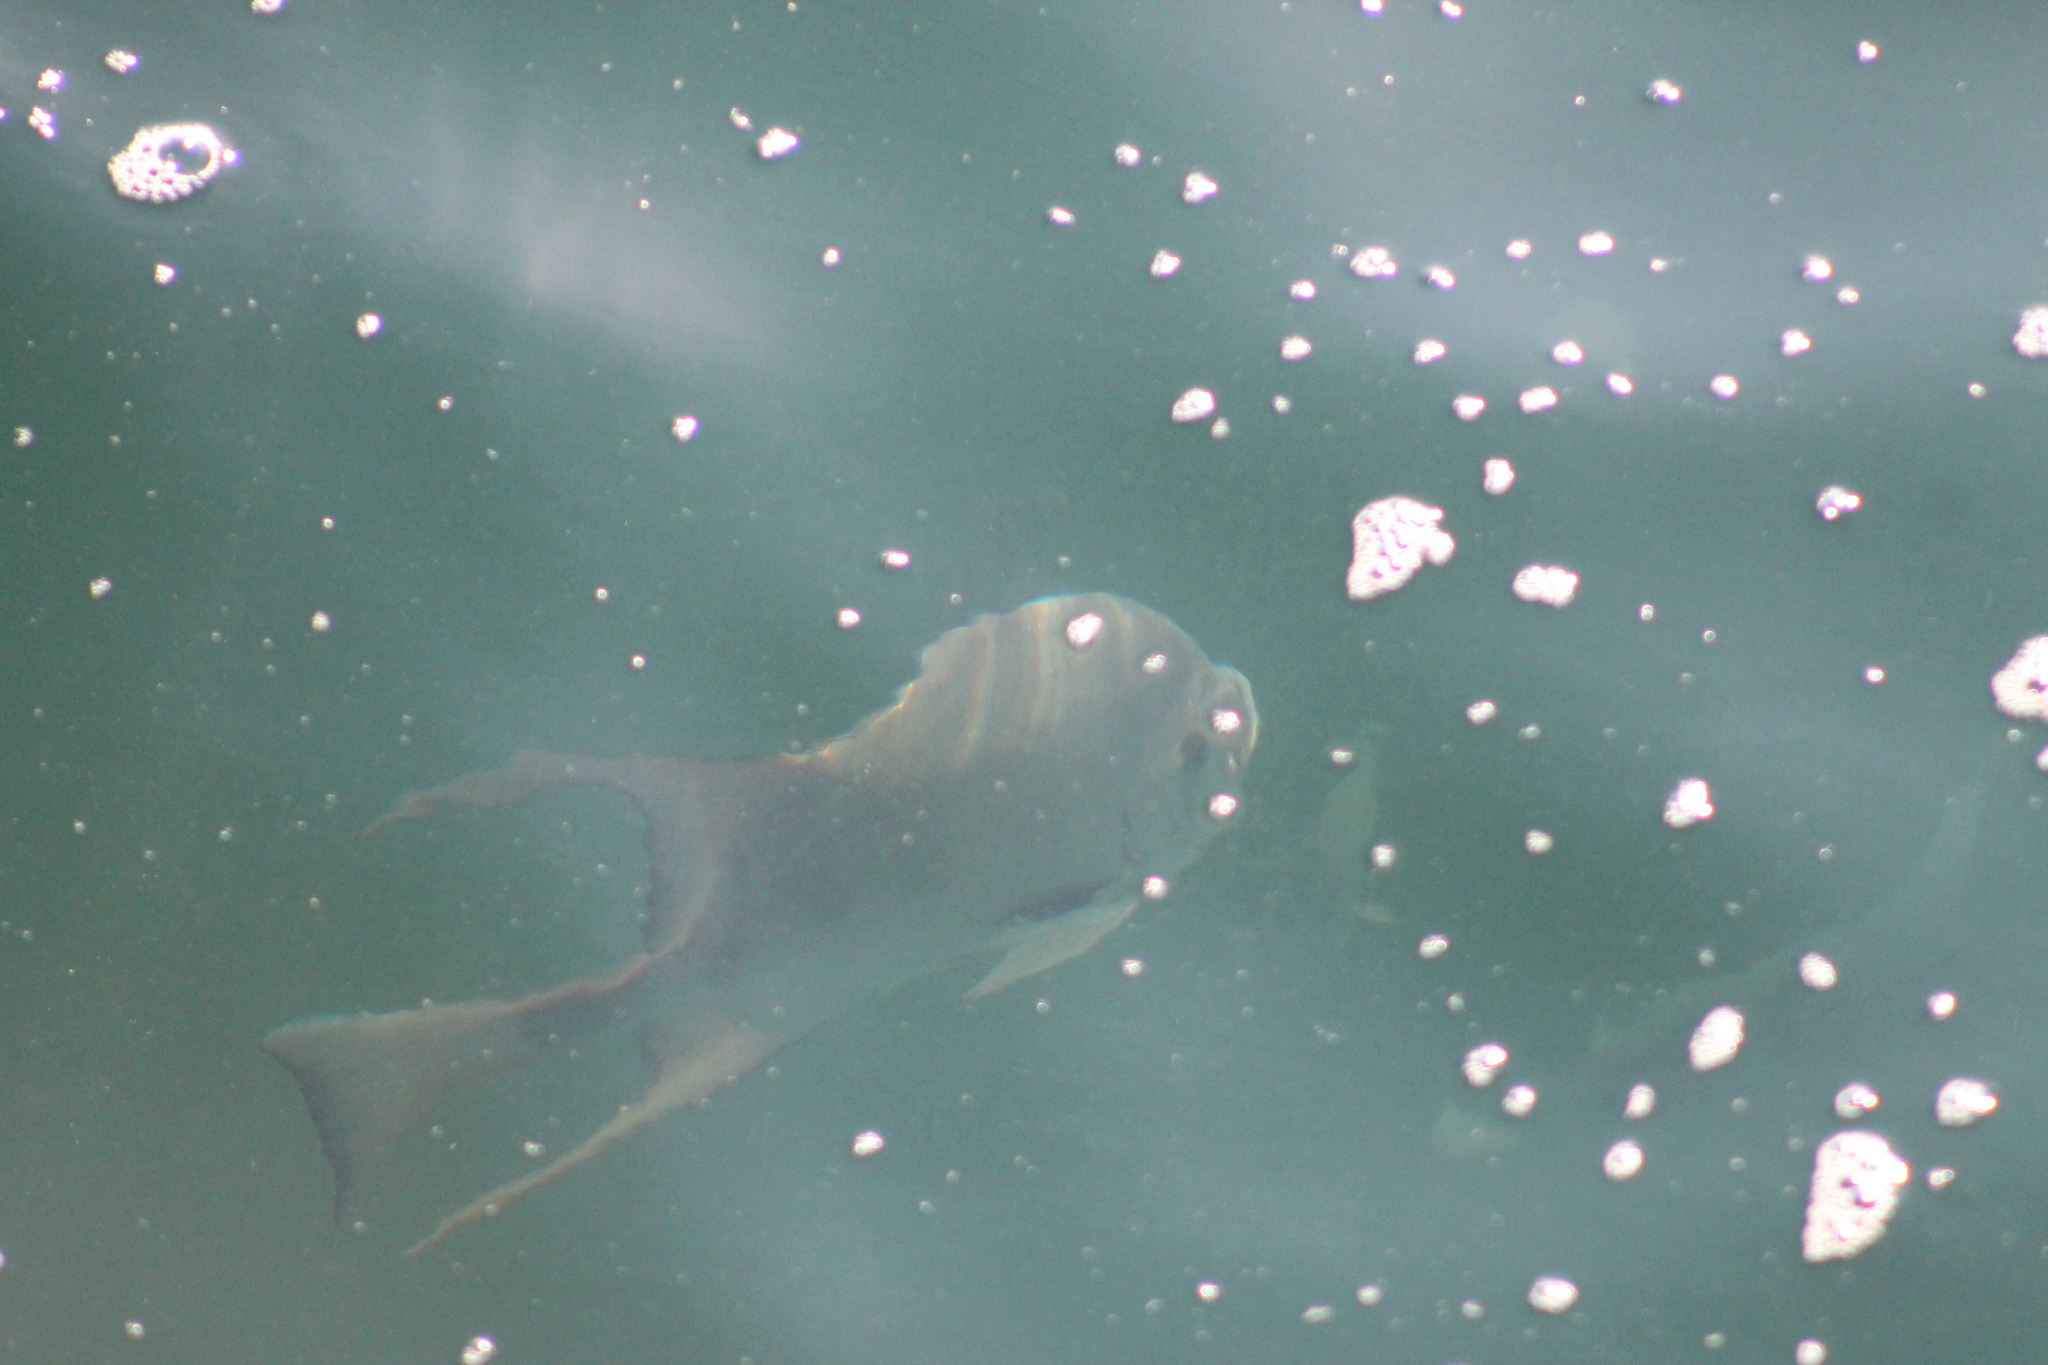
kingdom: Animalia
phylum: Chordata
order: Perciformes
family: Ephippidae
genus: Chaetodipterus
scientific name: Chaetodipterus faber
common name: Ocean cobbler
